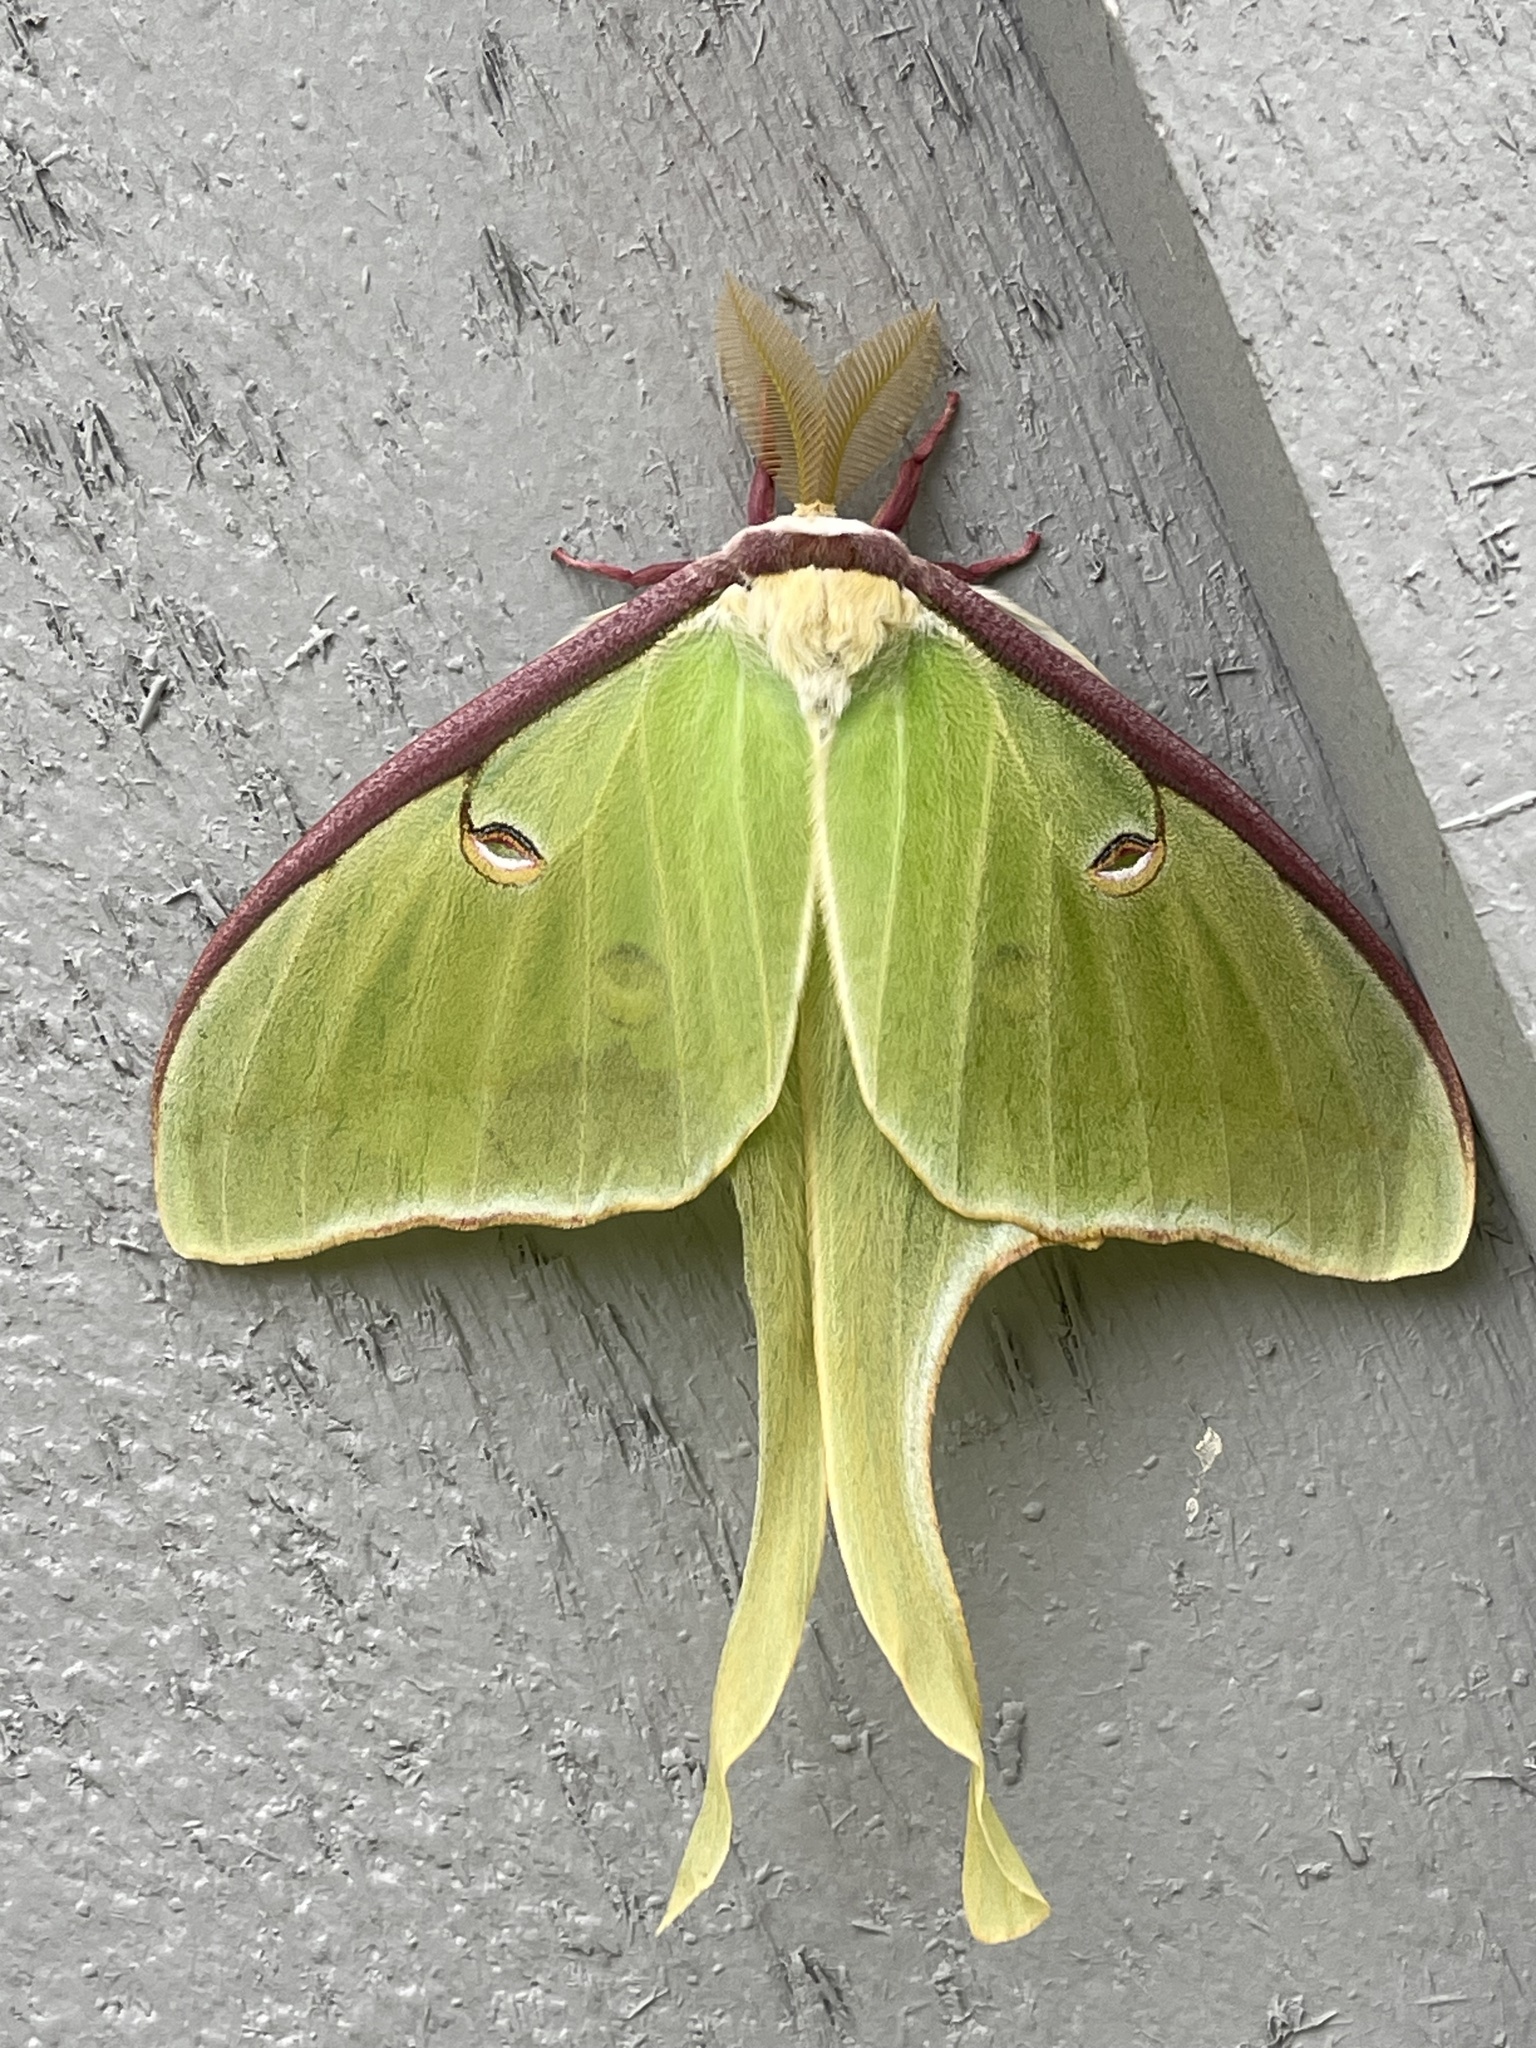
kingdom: Animalia
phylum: Arthropoda
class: Insecta
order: Lepidoptera
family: Saturniidae
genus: Actias
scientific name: Actias luna
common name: Luna moth
